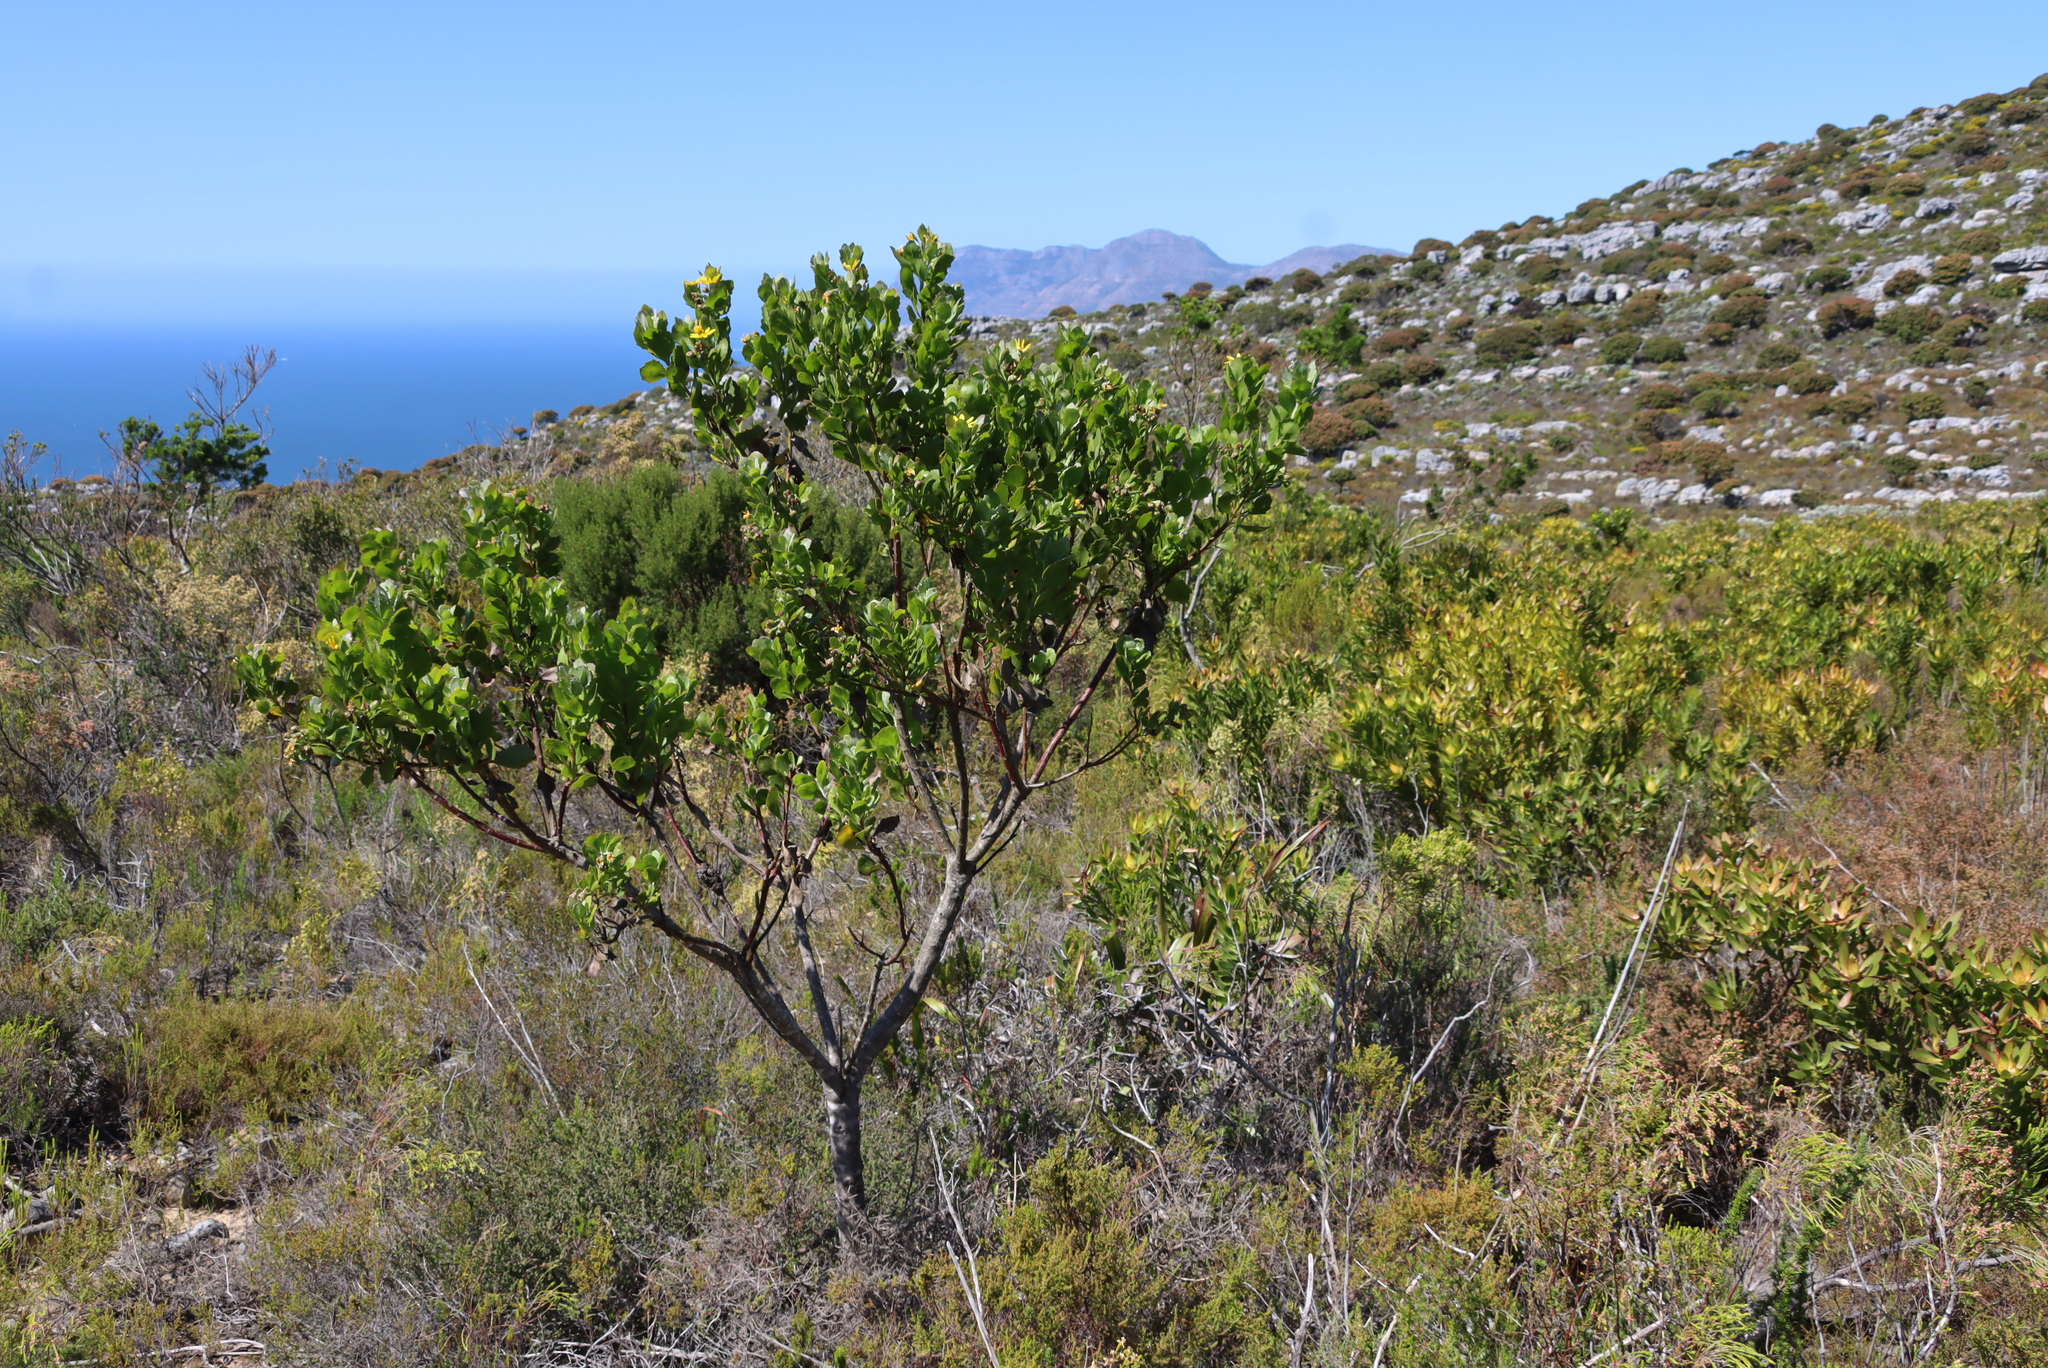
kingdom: Plantae
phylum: Tracheophyta
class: Magnoliopsida
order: Asterales
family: Asteraceae
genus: Osteospermum
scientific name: Osteospermum moniliferum
